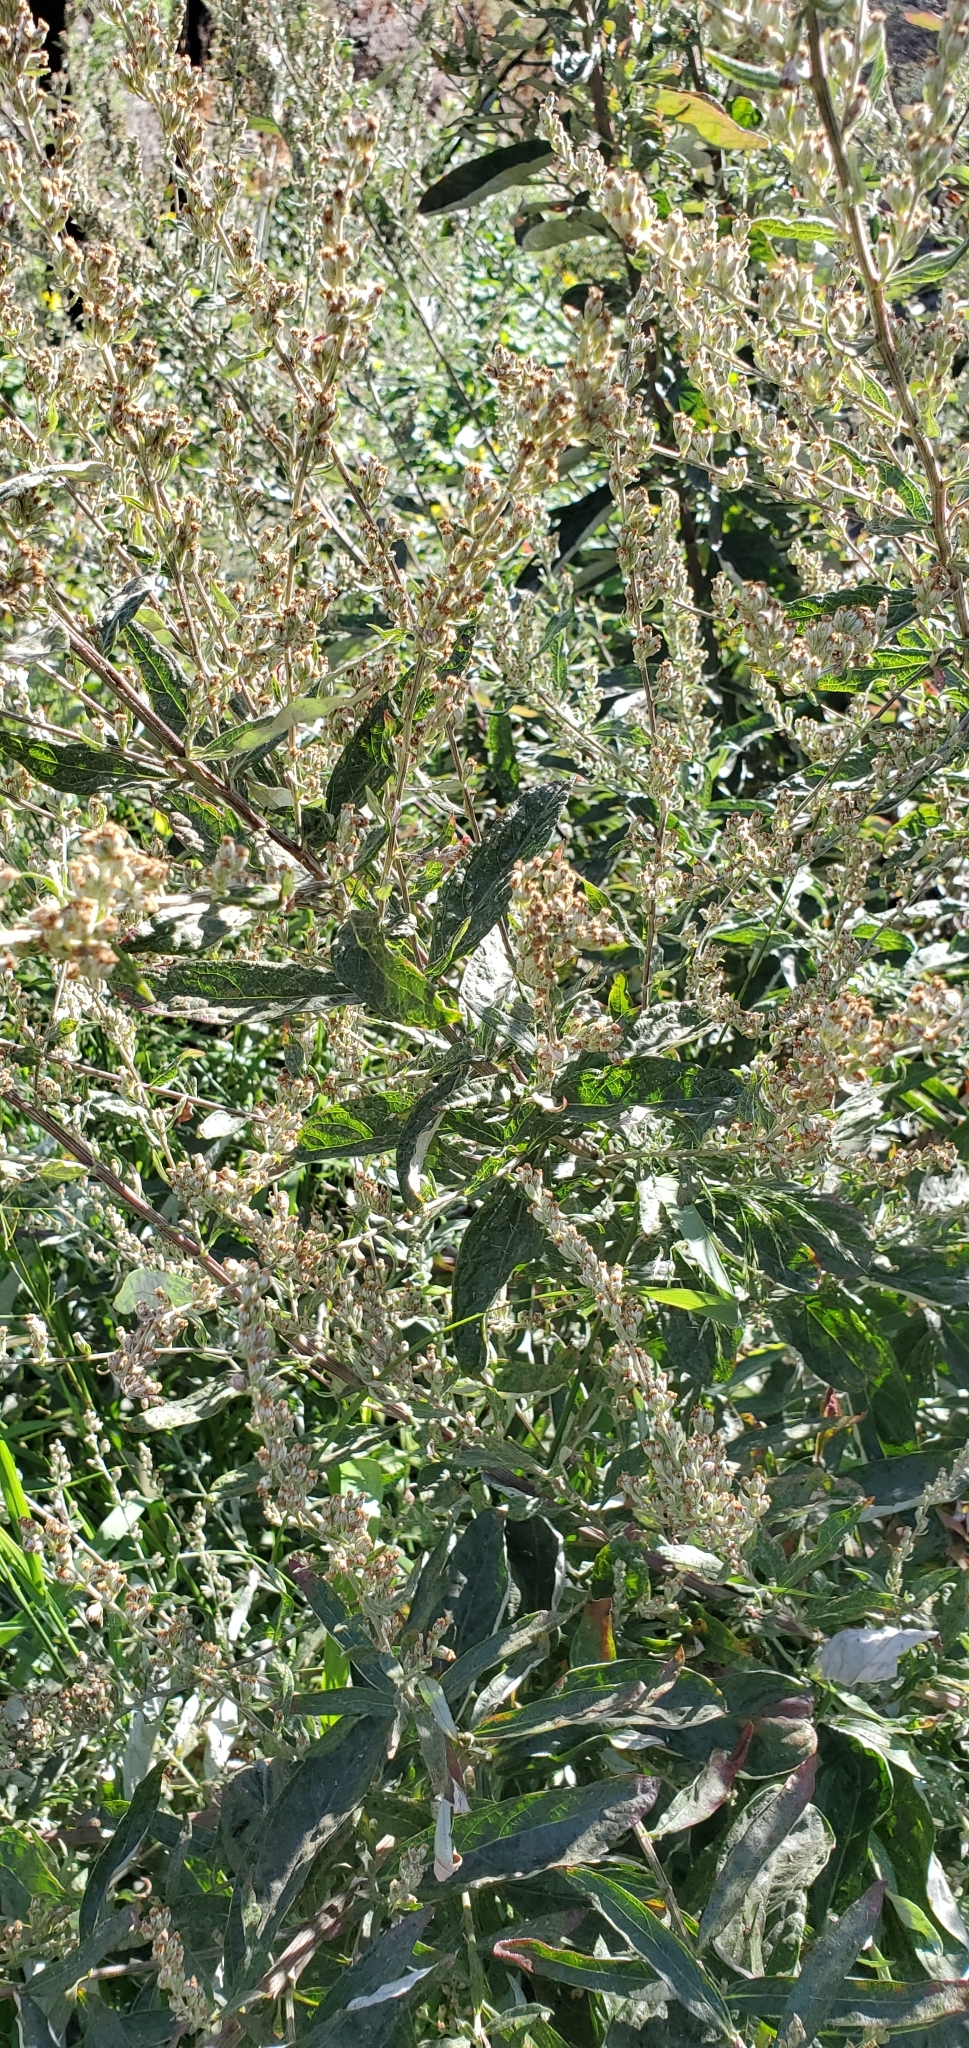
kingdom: Plantae
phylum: Tracheophyta
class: Magnoliopsida
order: Asterales
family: Asteraceae
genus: Artemisia
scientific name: Artemisia douglasiana
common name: Northwest mugwort
